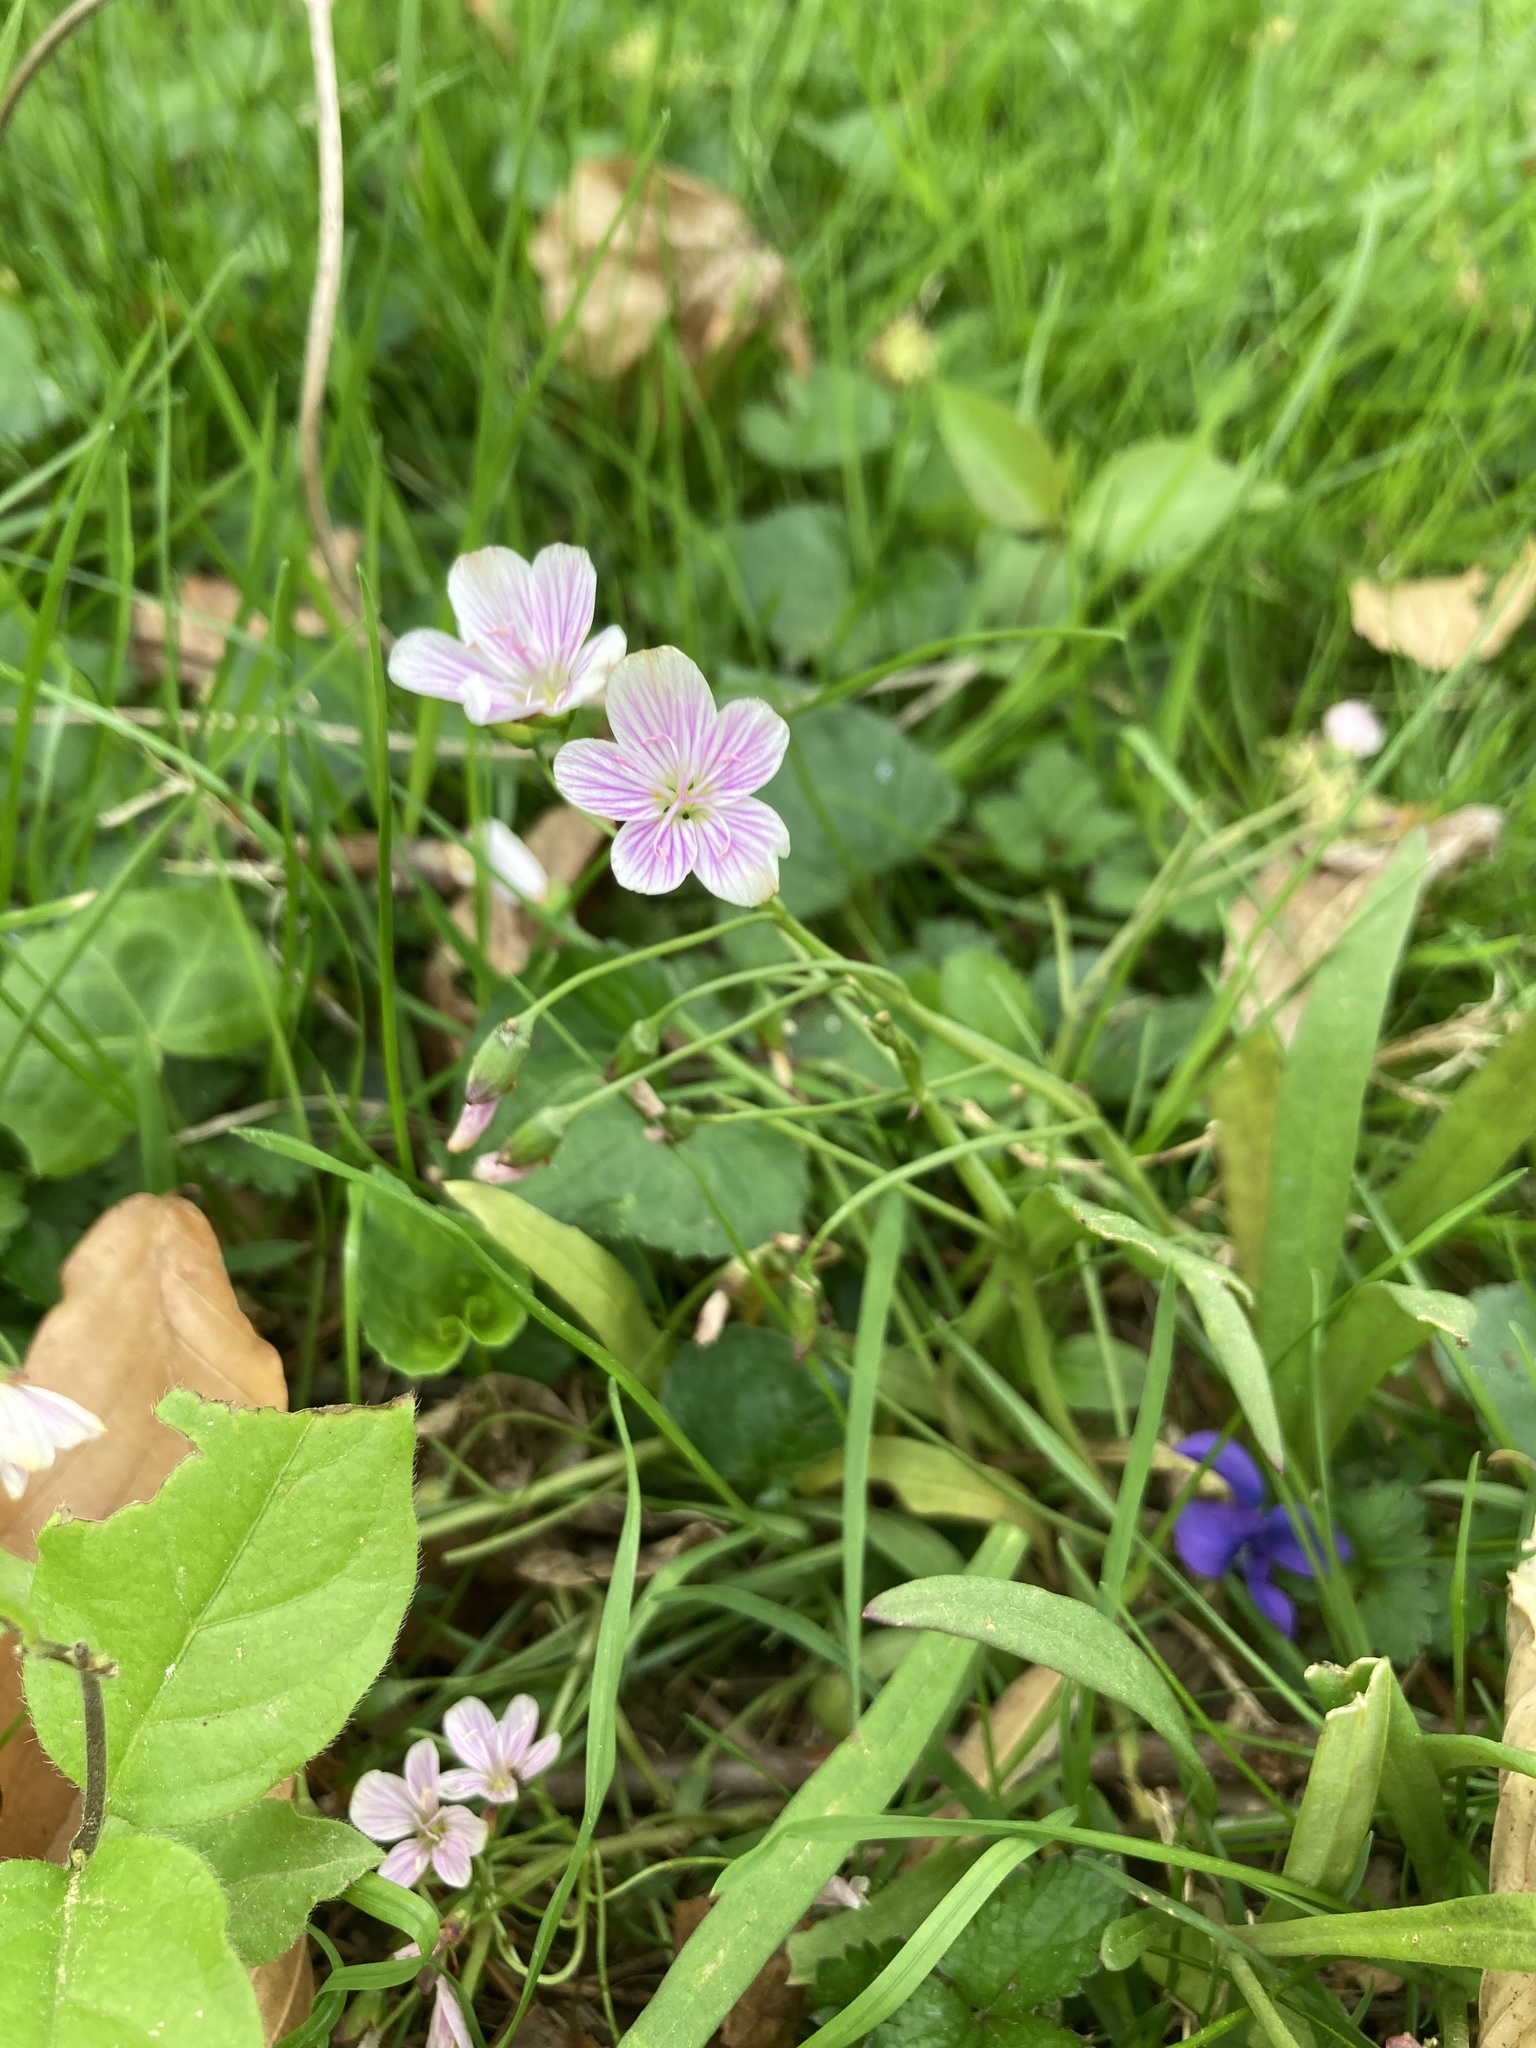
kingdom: Plantae
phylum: Tracheophyta
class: Magnoliopsida
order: Caryophyllales
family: Montiaceae
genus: Claytonia
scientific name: Claytonia virginica
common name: Virginia springbeauty
